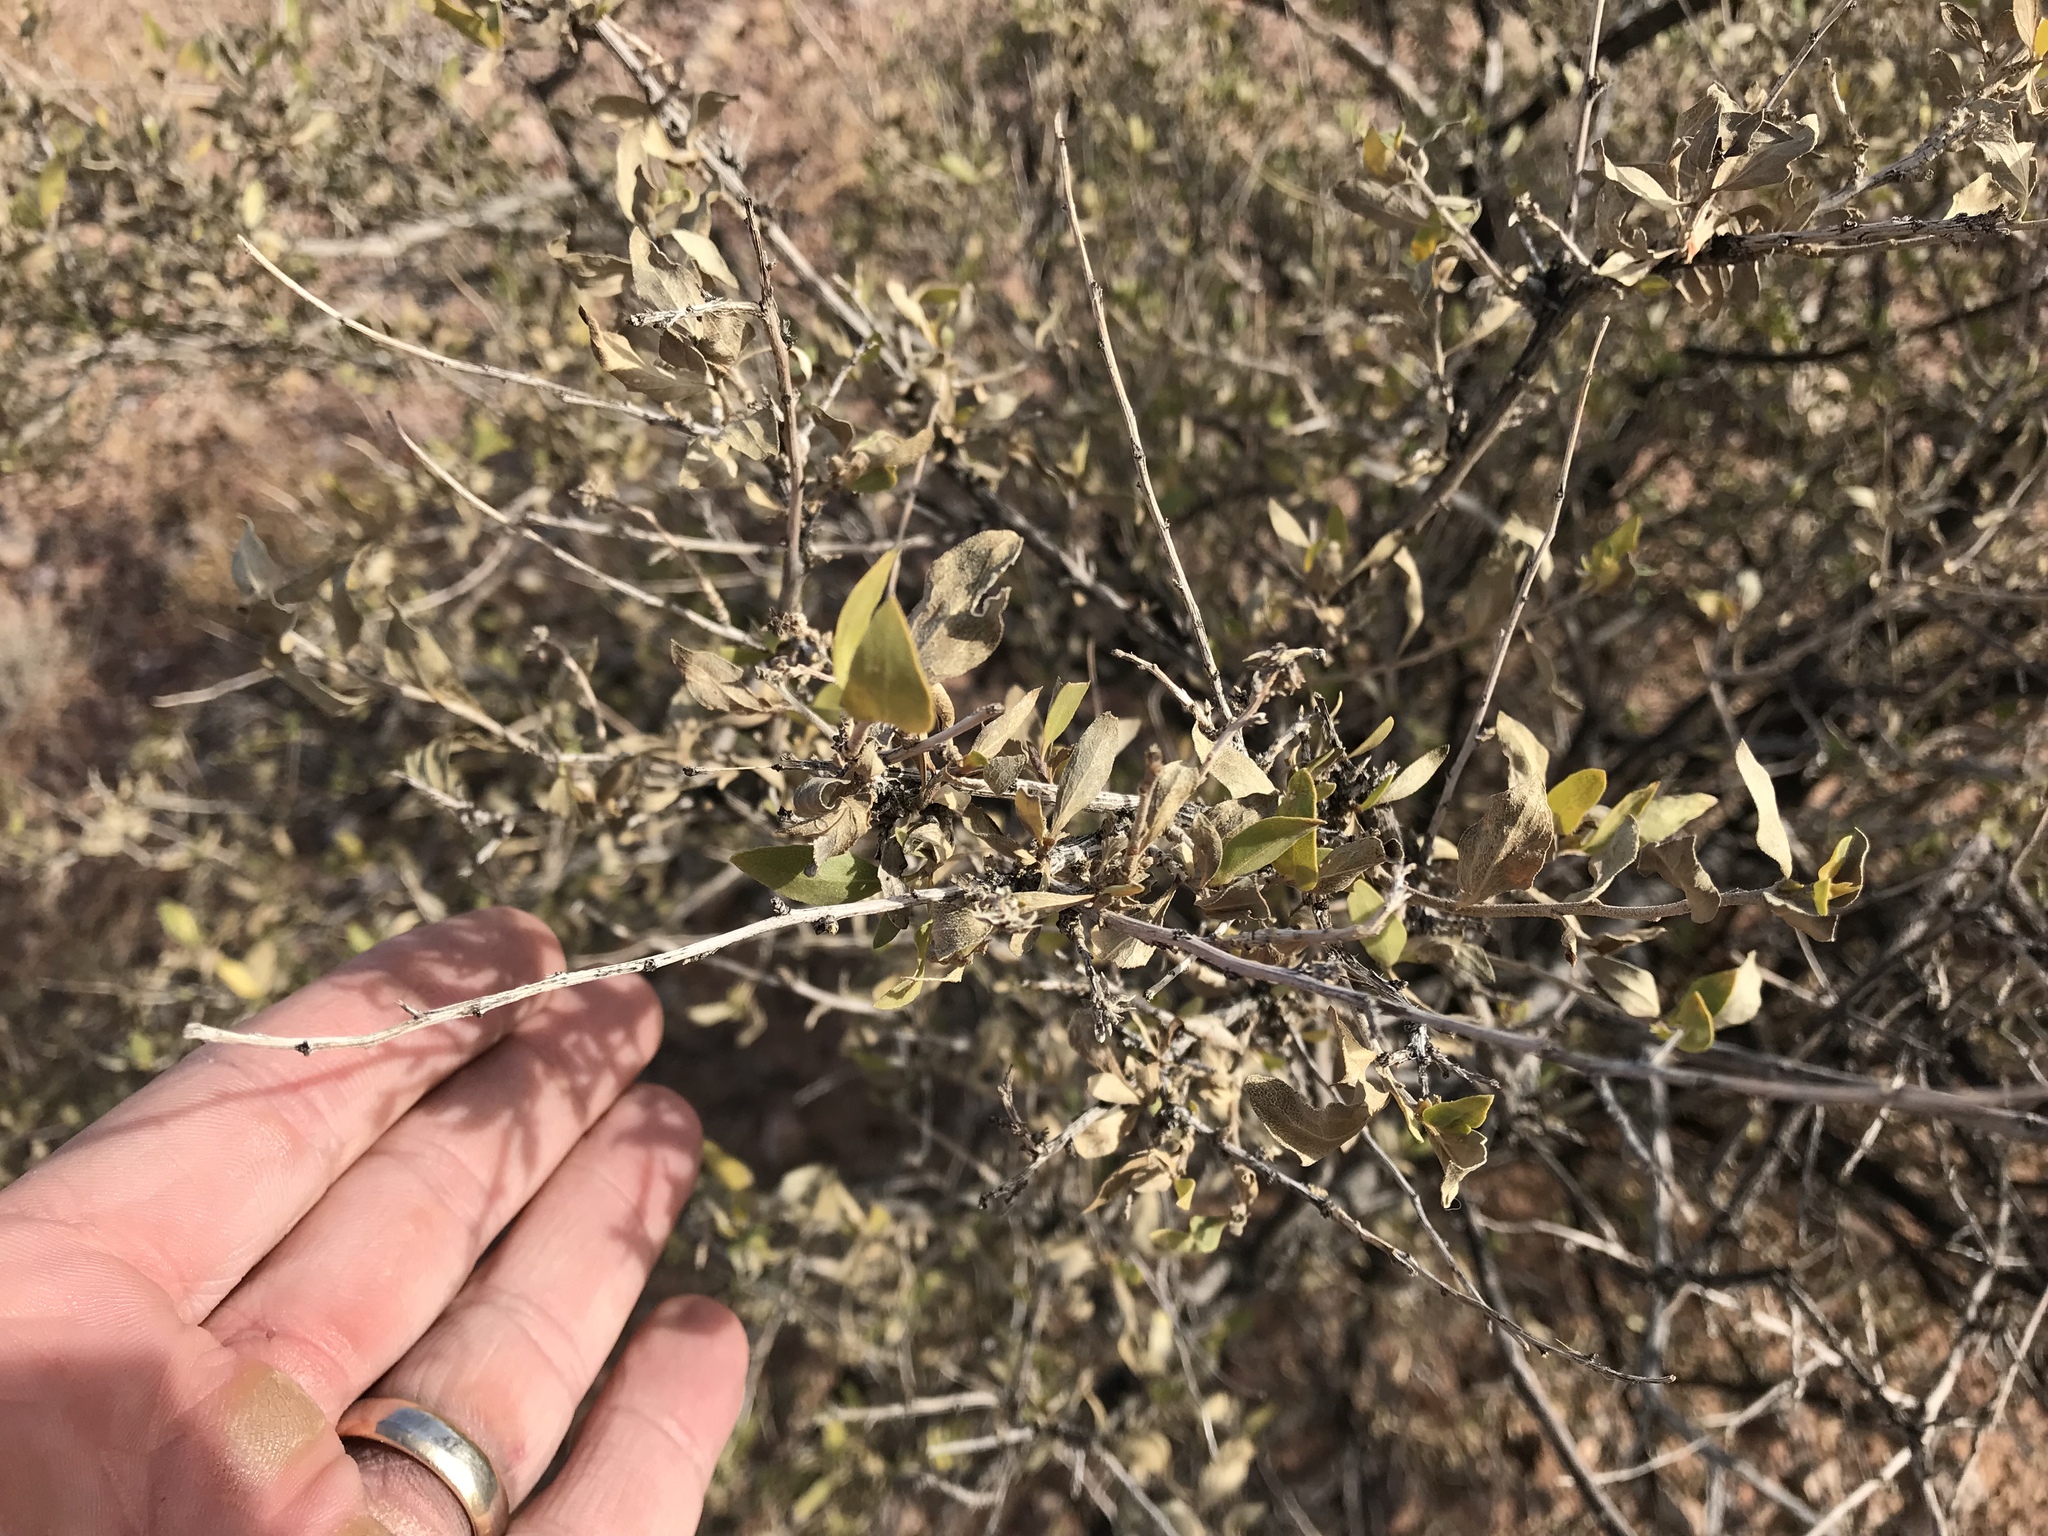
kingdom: Plantae
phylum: Tracheophyta
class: Magnoliopsida
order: Asterales
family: Asteraceae
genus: Flourensia
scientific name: Flourensia cernua
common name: Varnishbush
